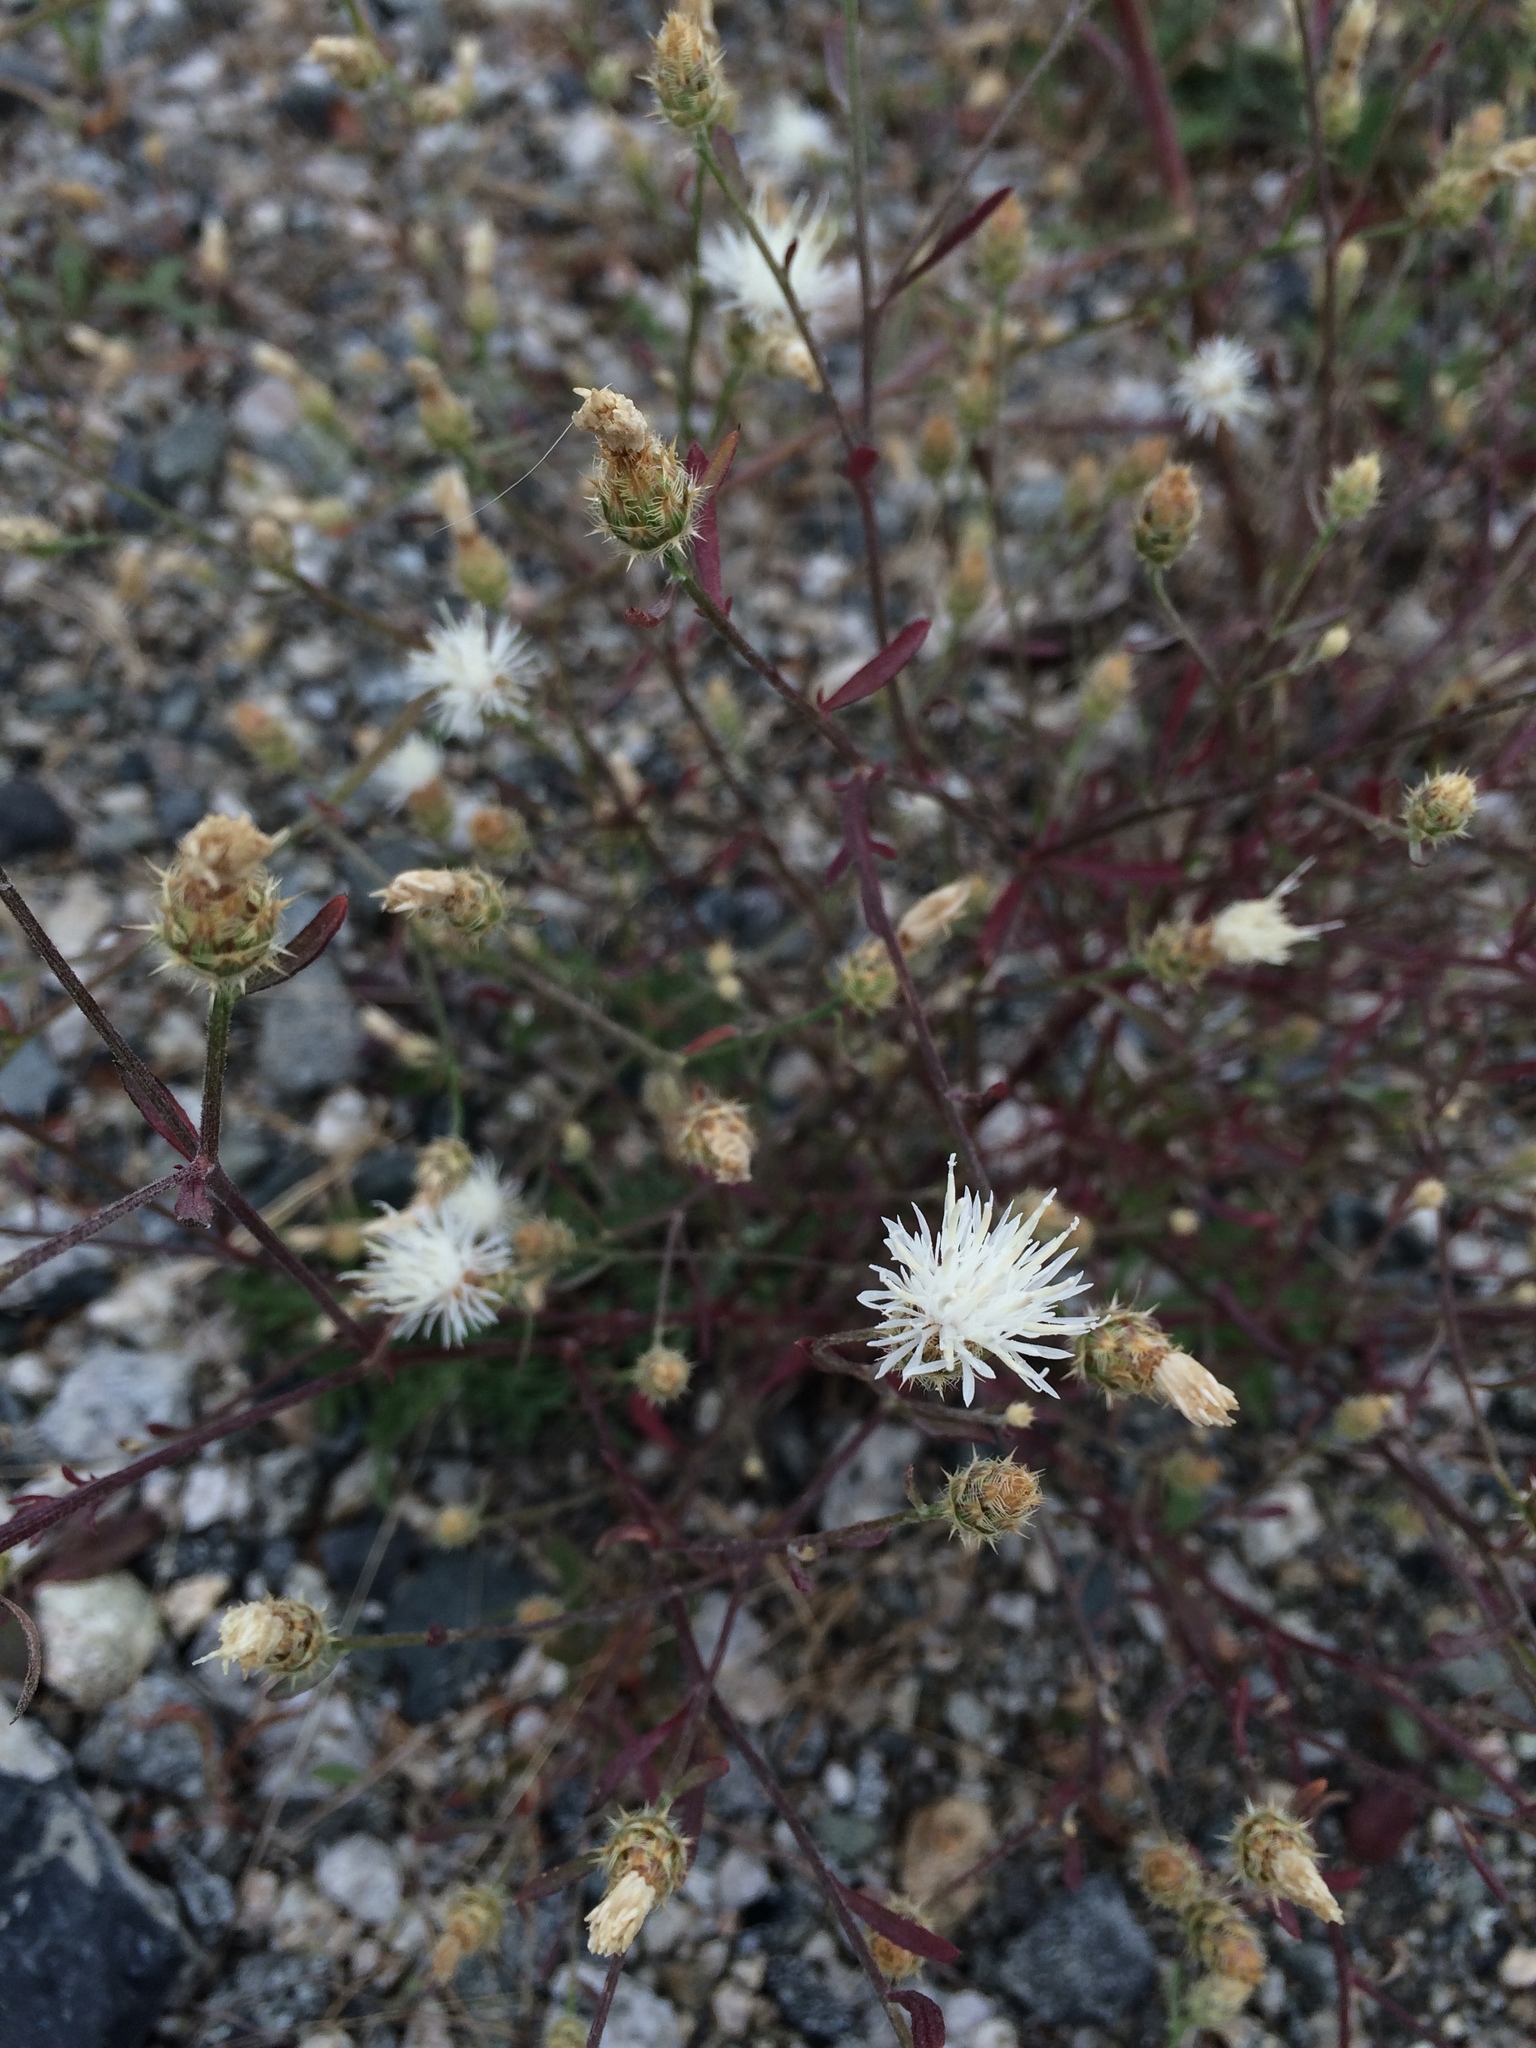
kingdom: Plantae
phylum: Tracheophyta
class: Magnoliopsida
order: Asterales
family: Asteraceae
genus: Centaurea
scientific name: Centaurea diffusa
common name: Diffuse knapweed
